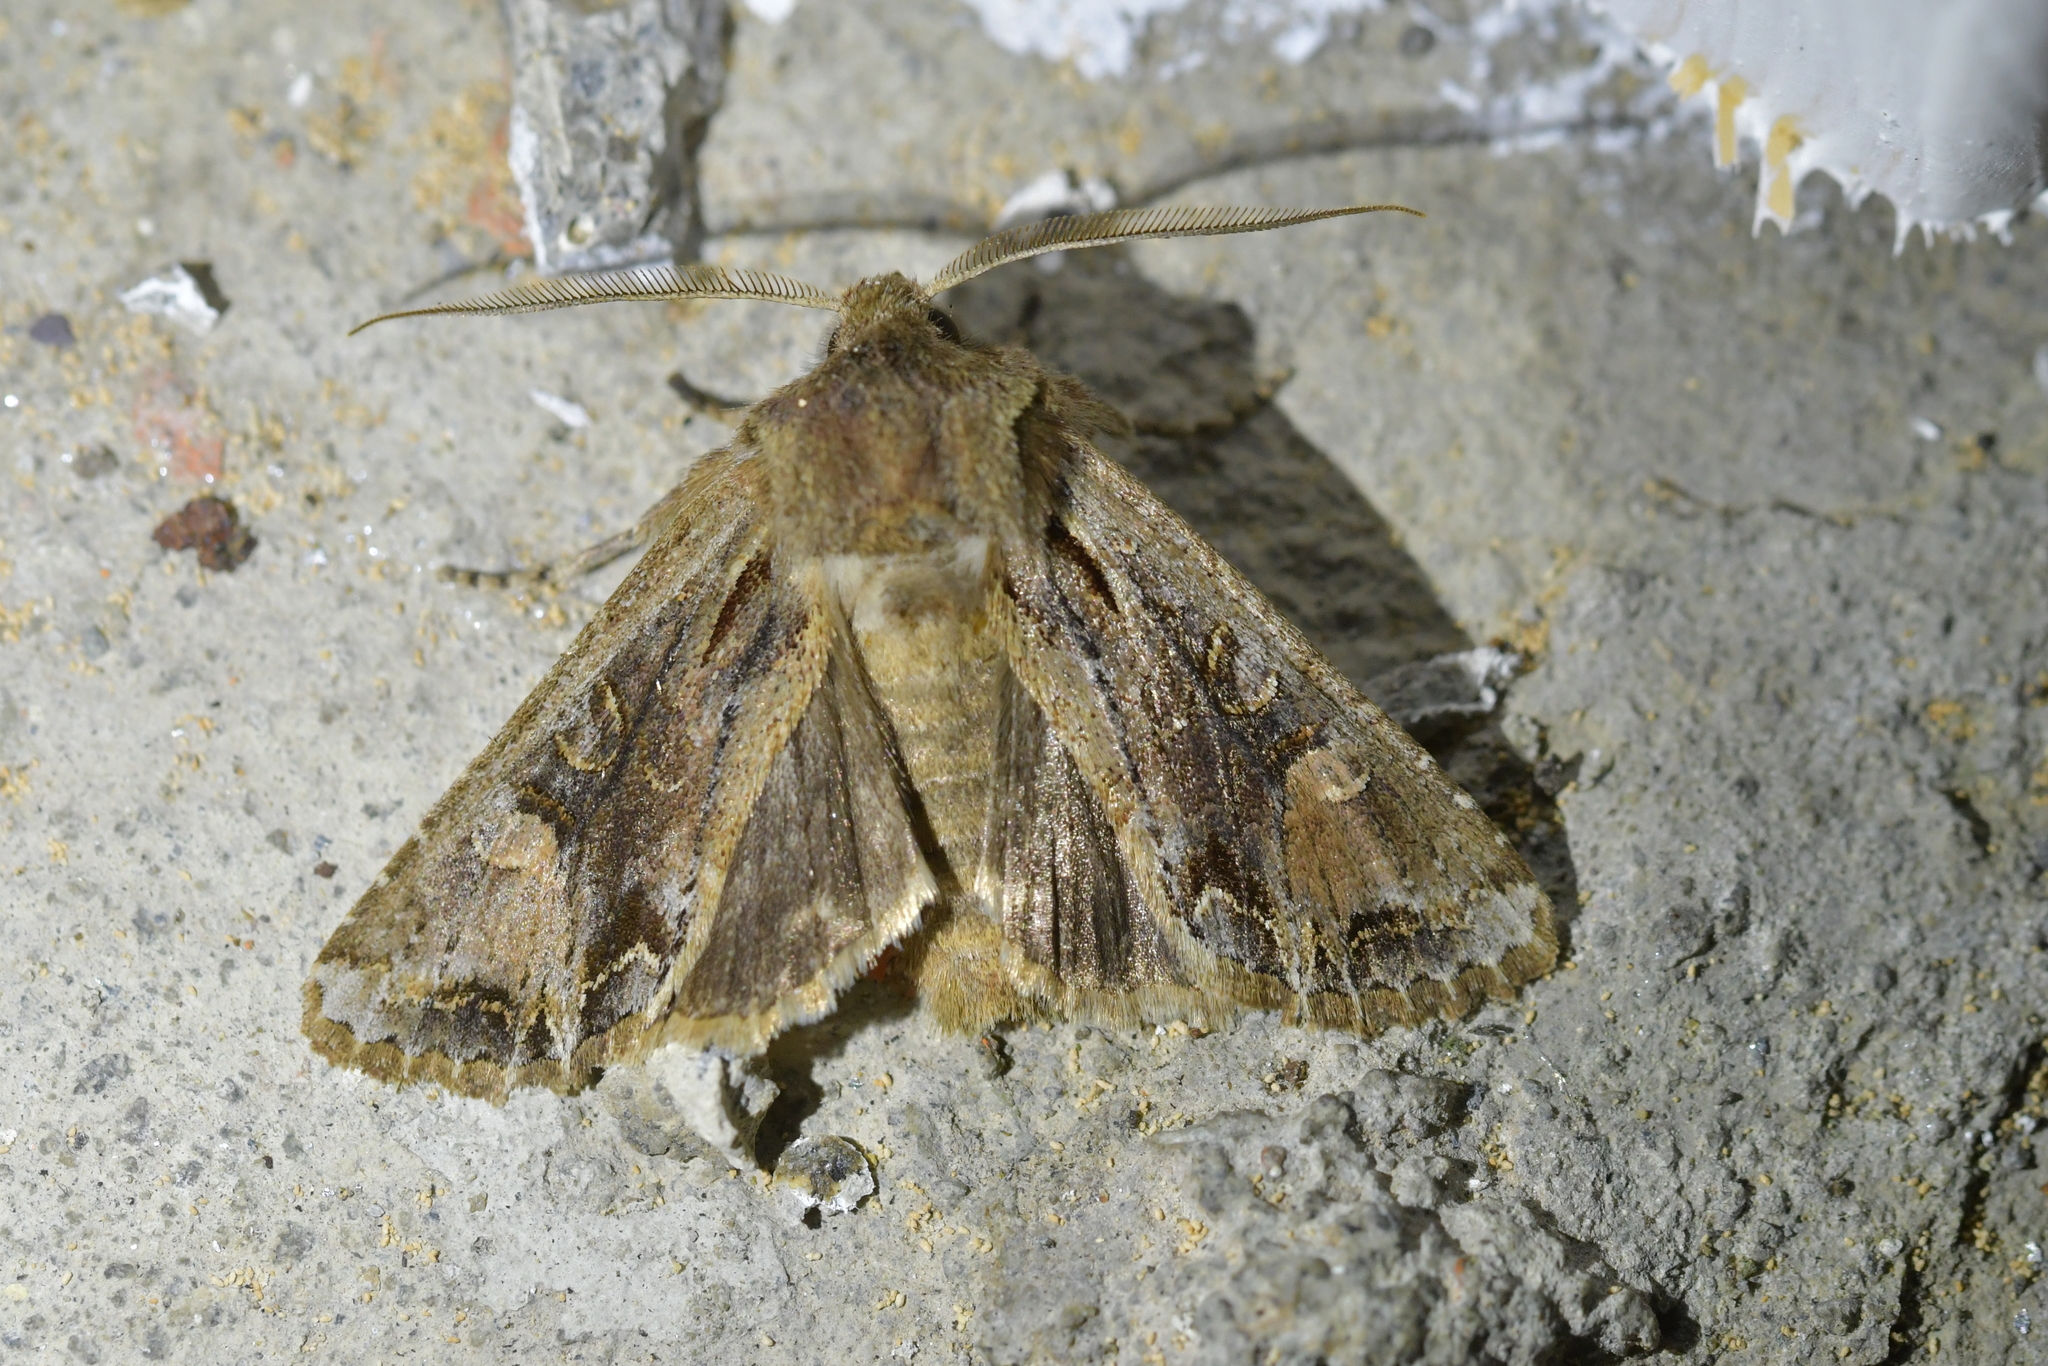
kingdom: Animalia
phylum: Arthropoda
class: Insecta
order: Lepidoptera
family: Noctuidae
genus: Ichneutica
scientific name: Ichneutica
